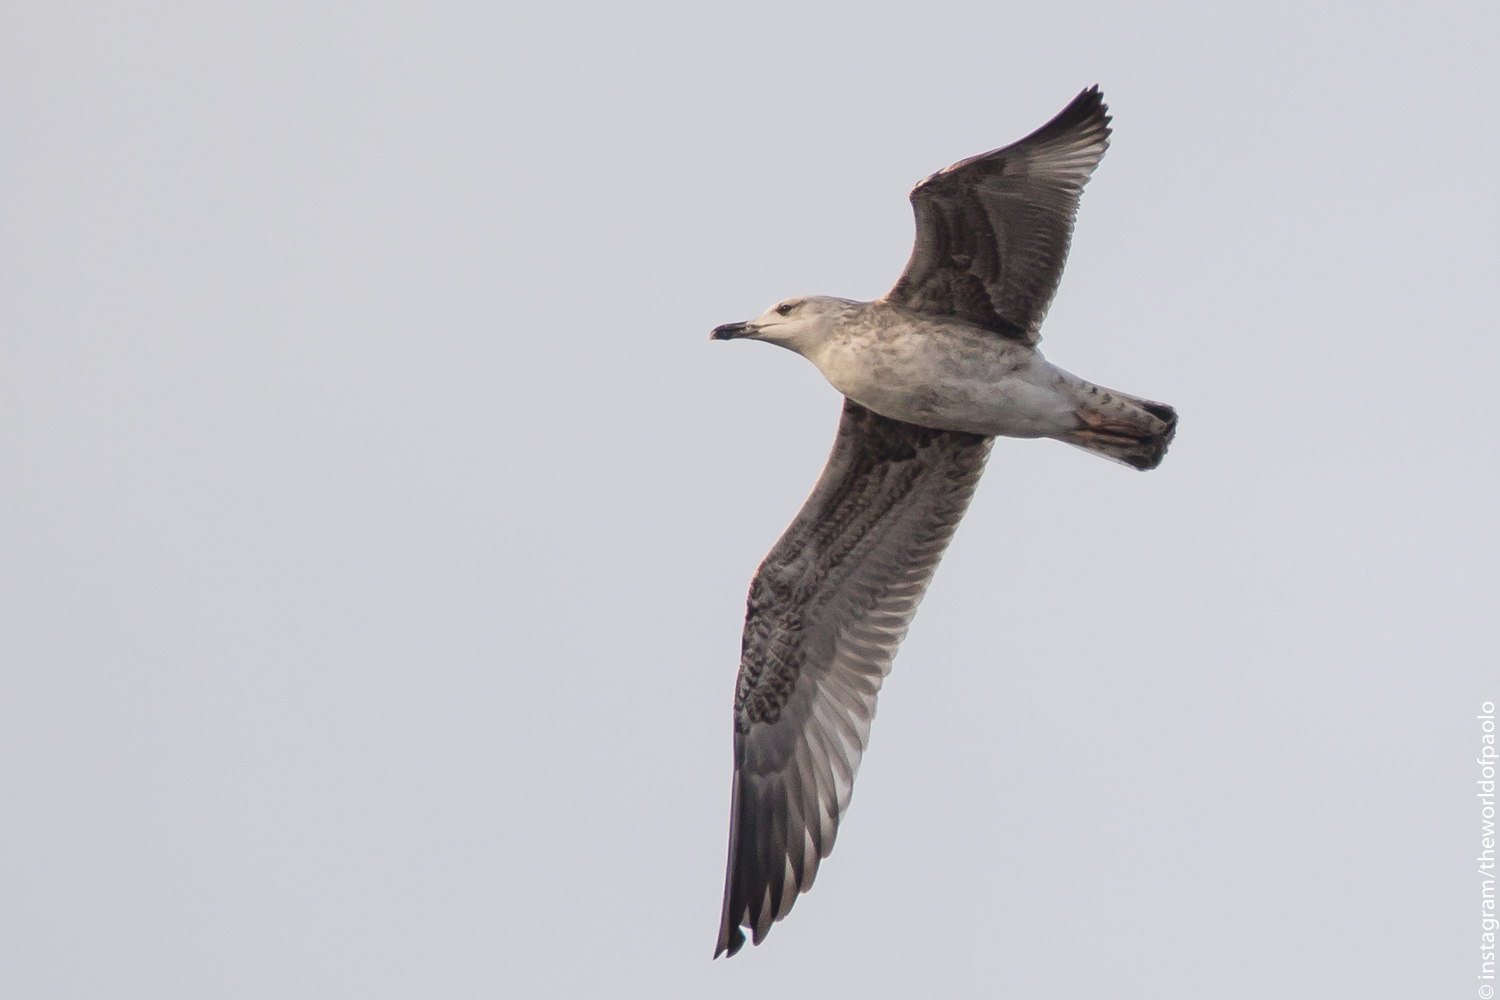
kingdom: Animalia
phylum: Chordata
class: Aves
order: Charadriiformes
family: Laridae
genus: Larus
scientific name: Larus michahellis
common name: Yellow-legged gull
